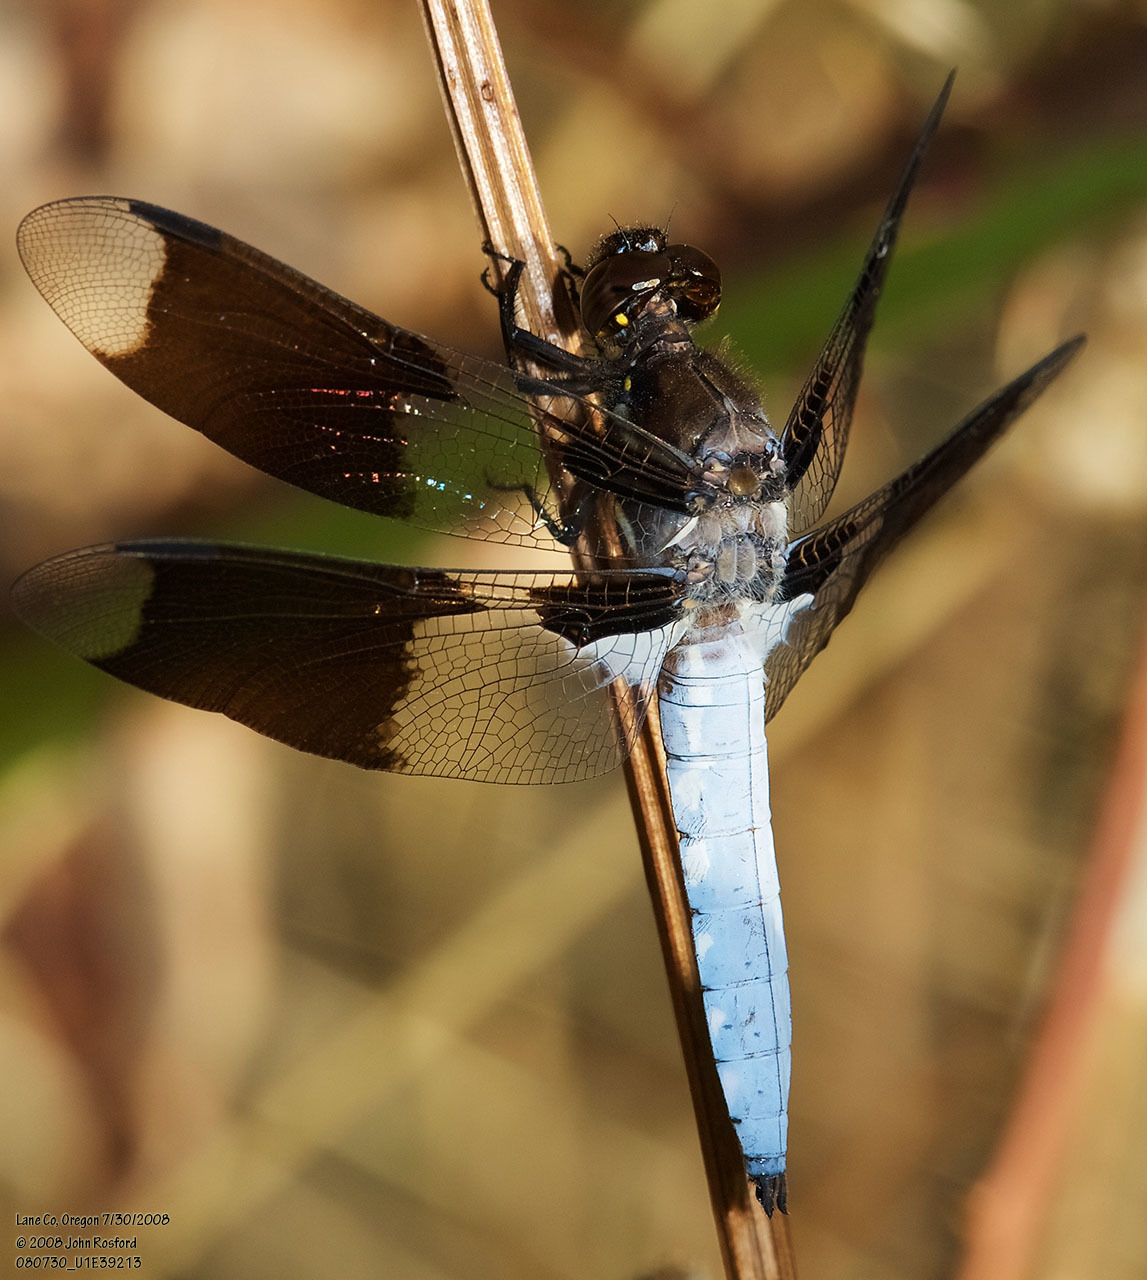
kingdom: Animalia
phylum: Arthropoda
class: Insecta
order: Odonata
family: Libellulidae
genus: Plathemis
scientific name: Plathemis lydia
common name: Common whitetail
